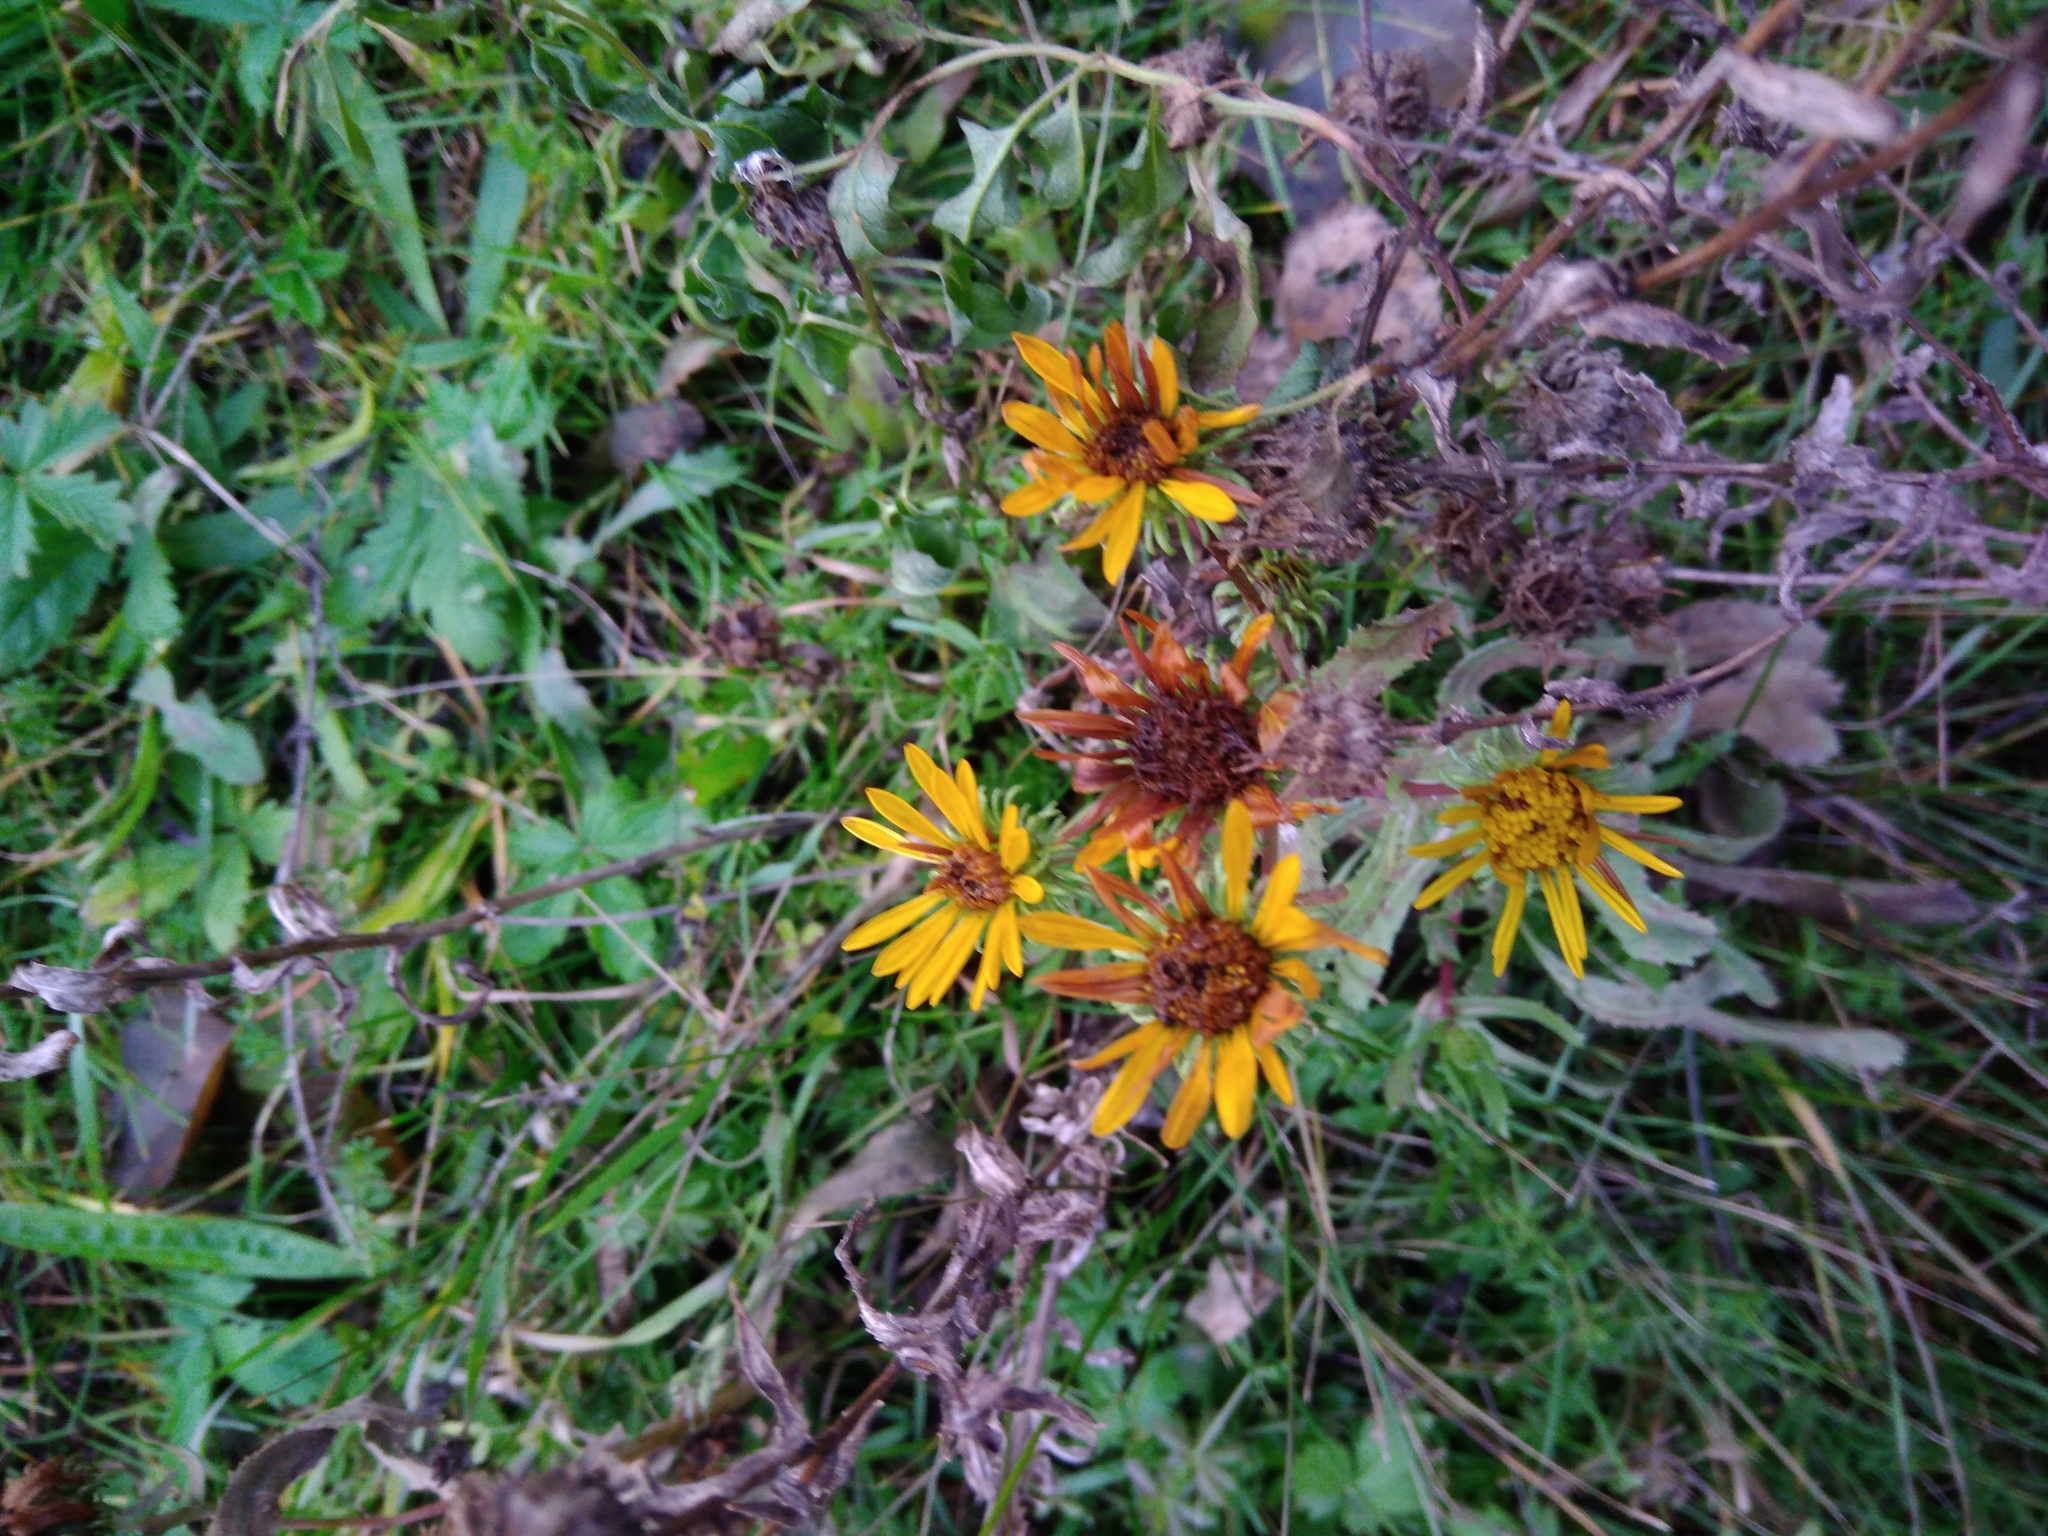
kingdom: Plantae
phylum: Tracheophyta
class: Magnoliopsida
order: Asterales
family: Asteraceae
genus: Grindelia
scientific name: Grindelia squarrosa
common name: Curly-cup gumweed
